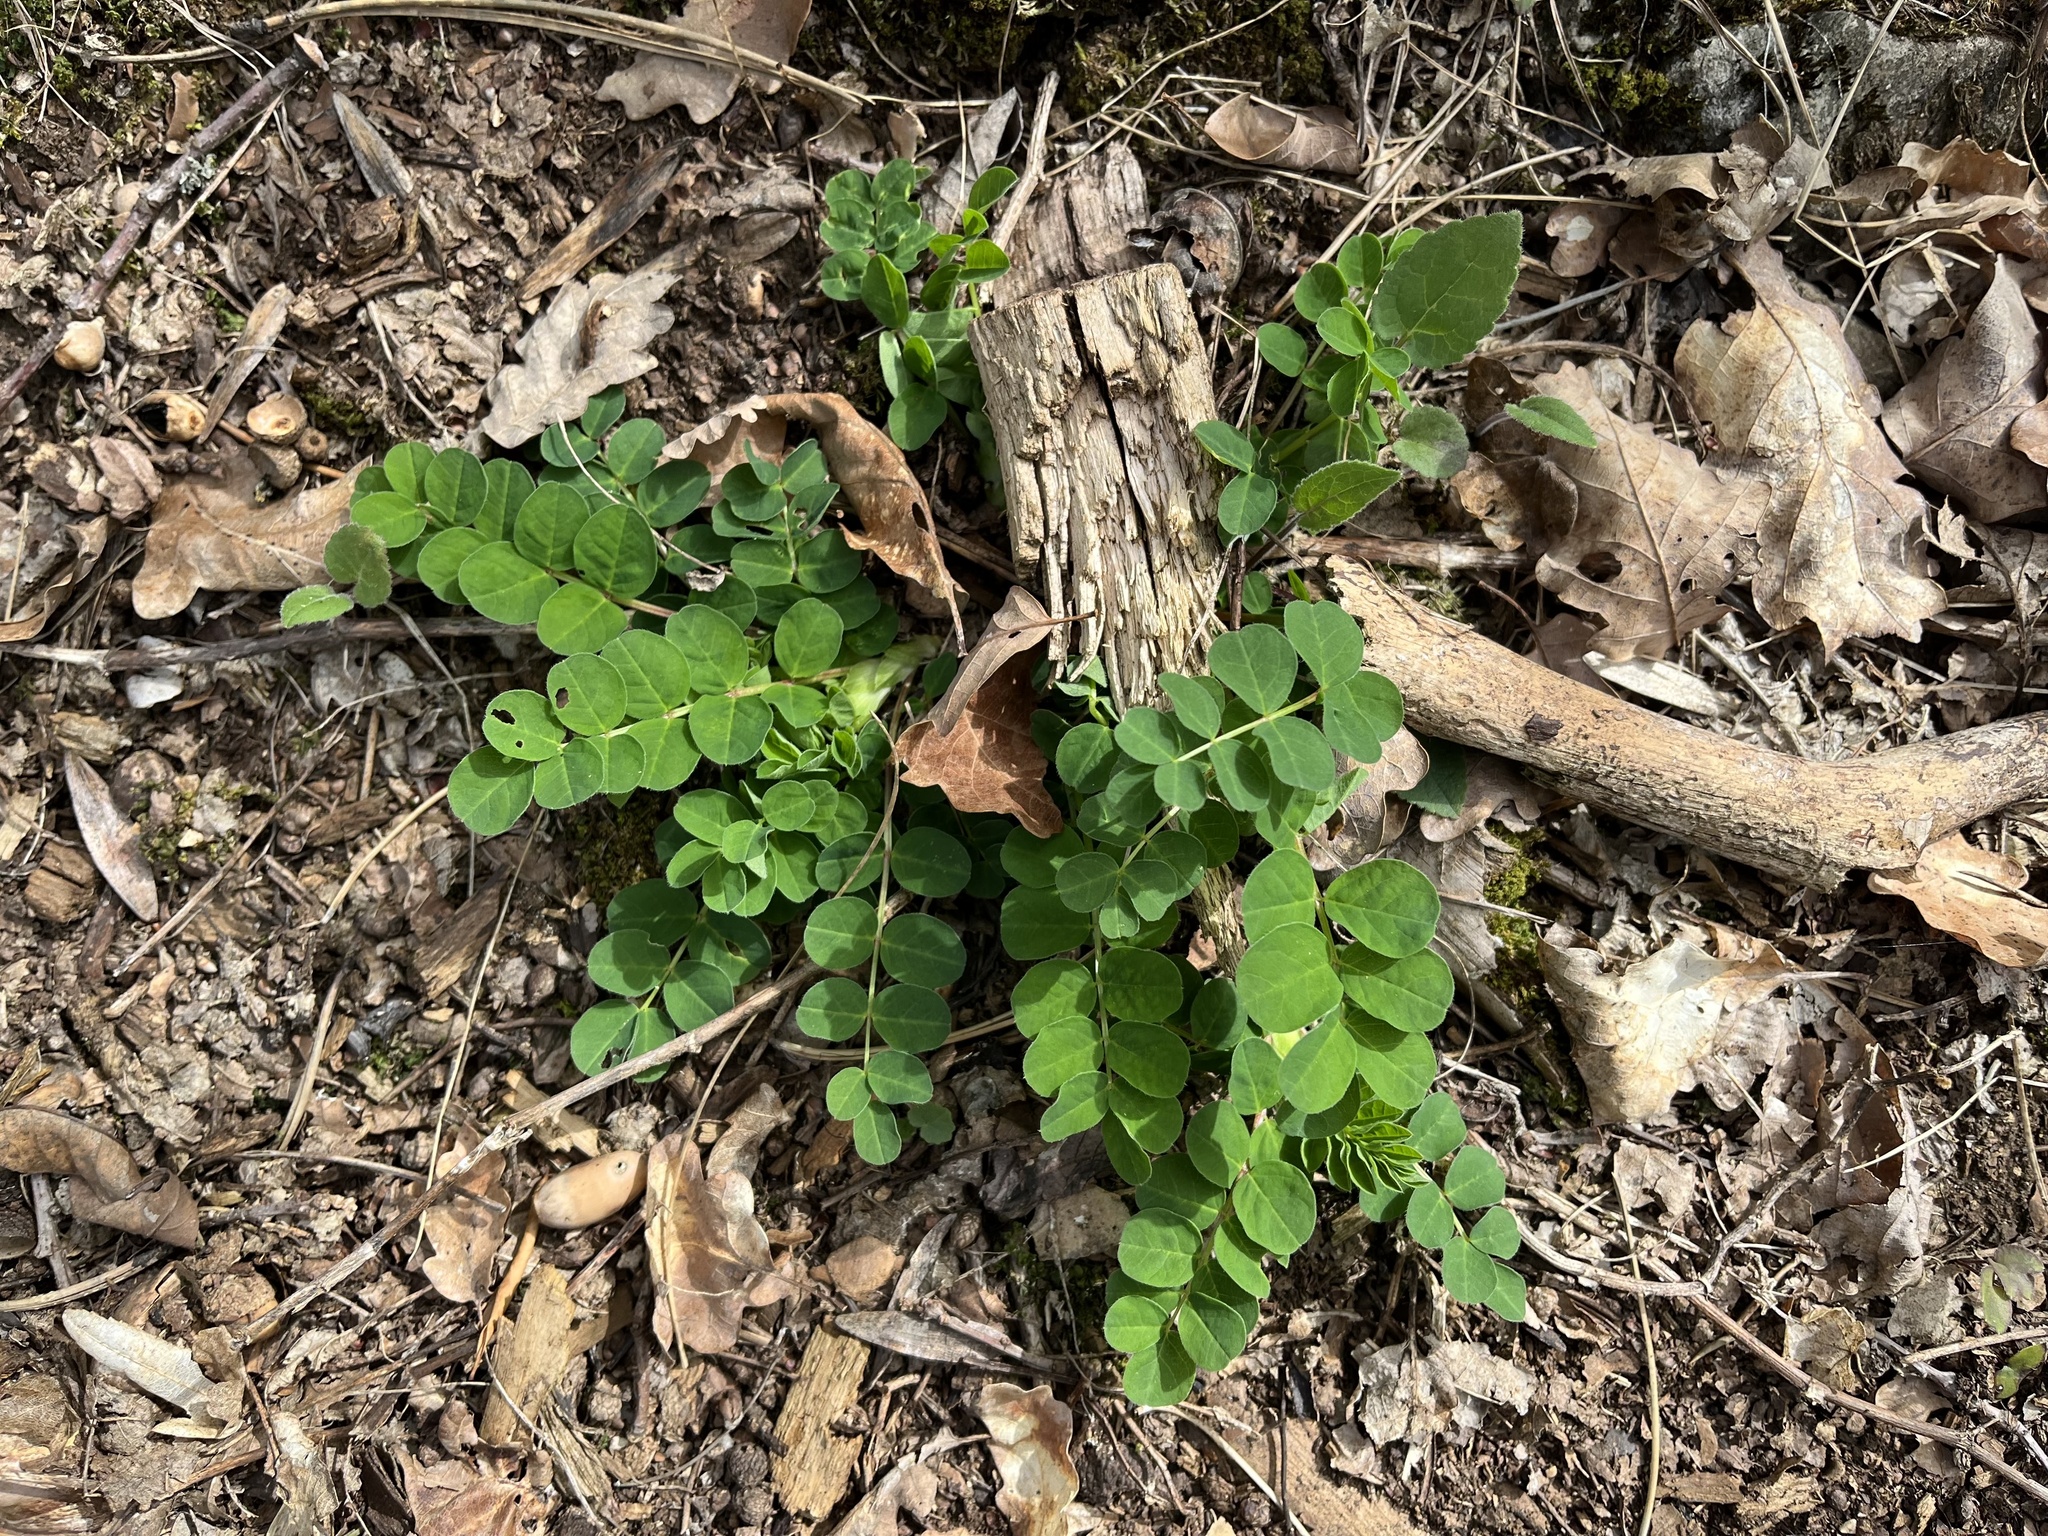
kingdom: Plantae
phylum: Tracheophyta
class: Magnoliopsida
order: Fabales
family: Fabaceae
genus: Astragalus
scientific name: Astragalus glycyphyllos
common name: Wild liquorice
